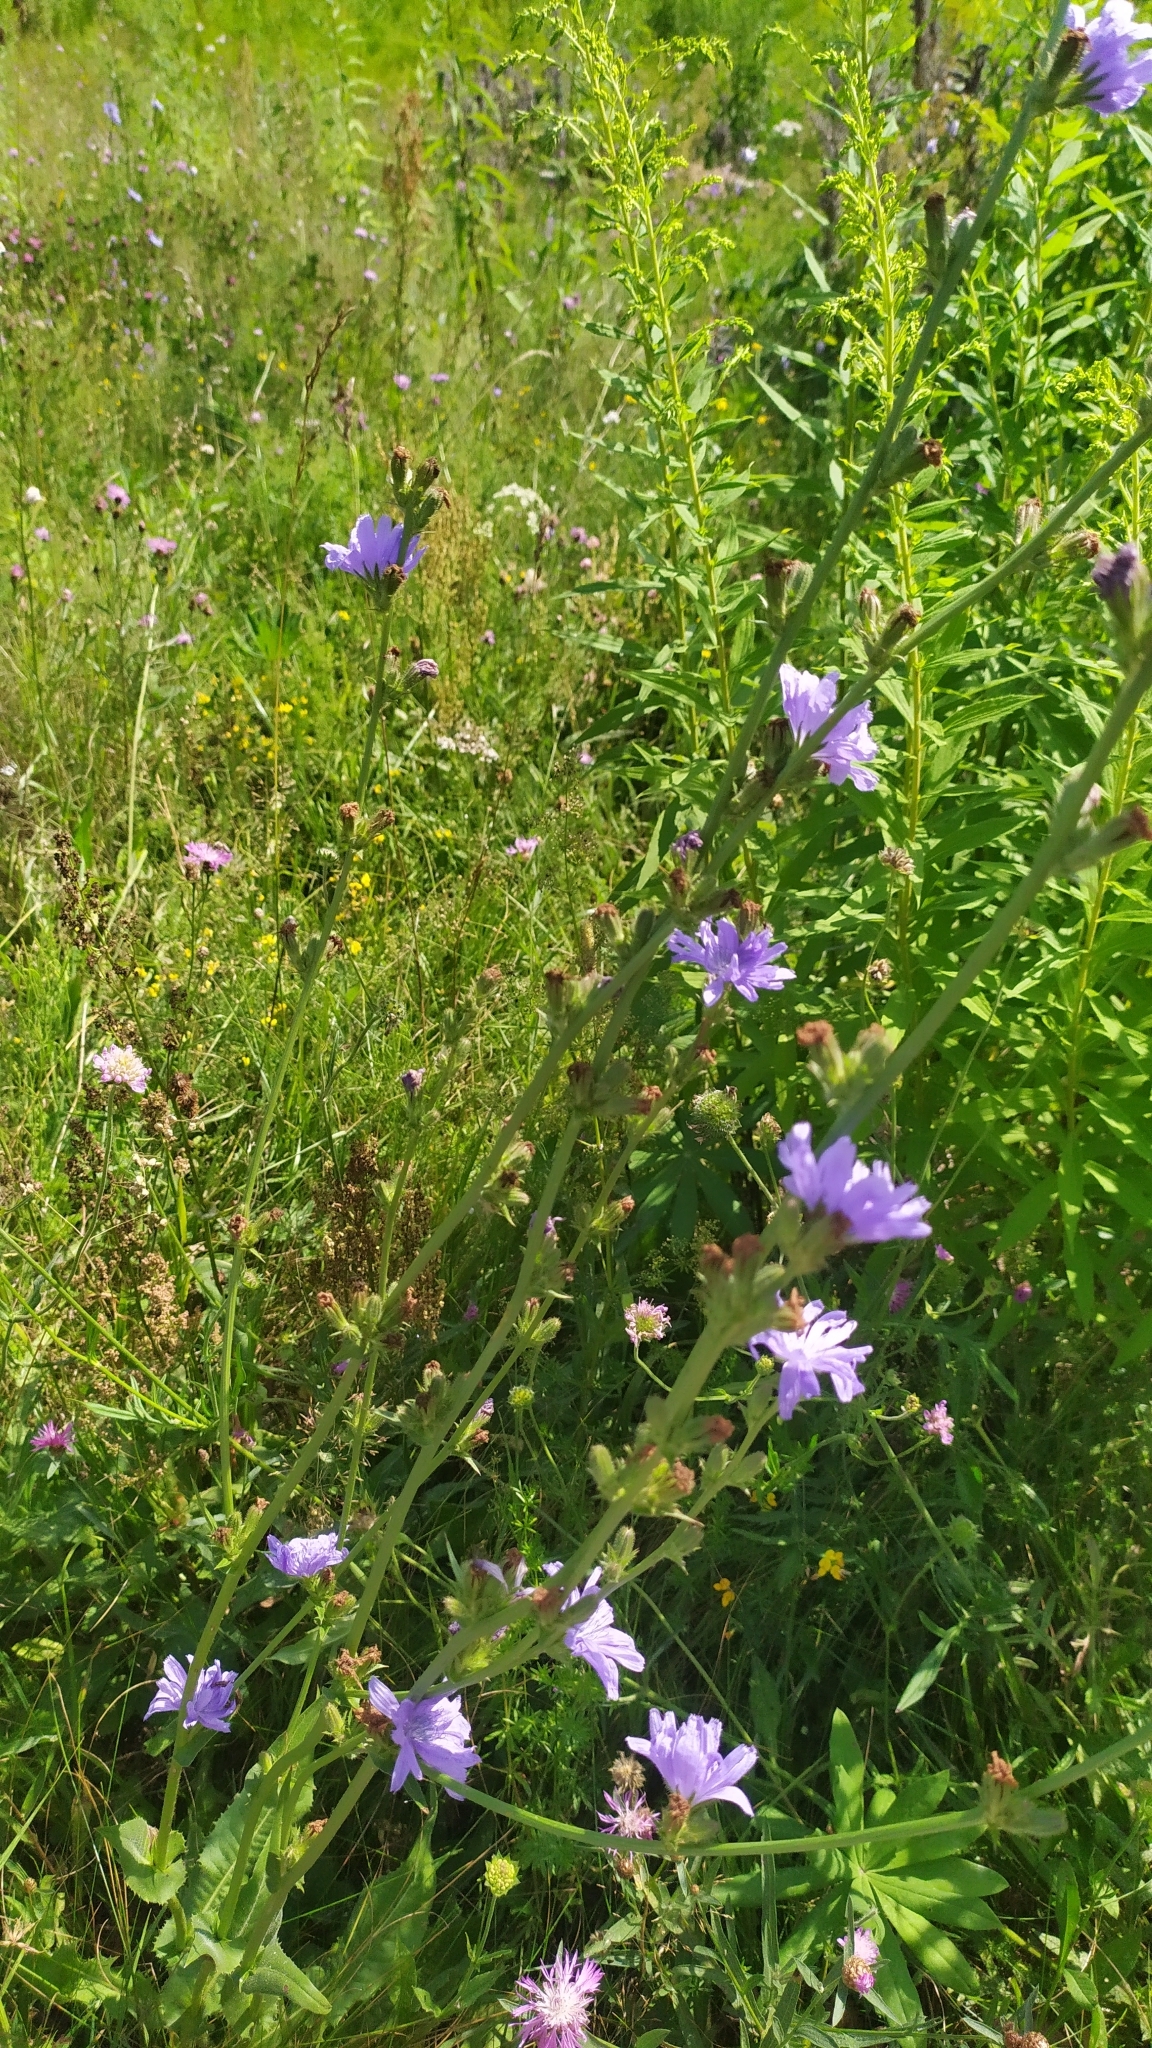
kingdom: Plantae
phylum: Tracheophyta
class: Magnoliopsida
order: Asterales
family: Asteraceae
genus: Cichorium
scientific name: Cichorium intybus
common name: Chicory
